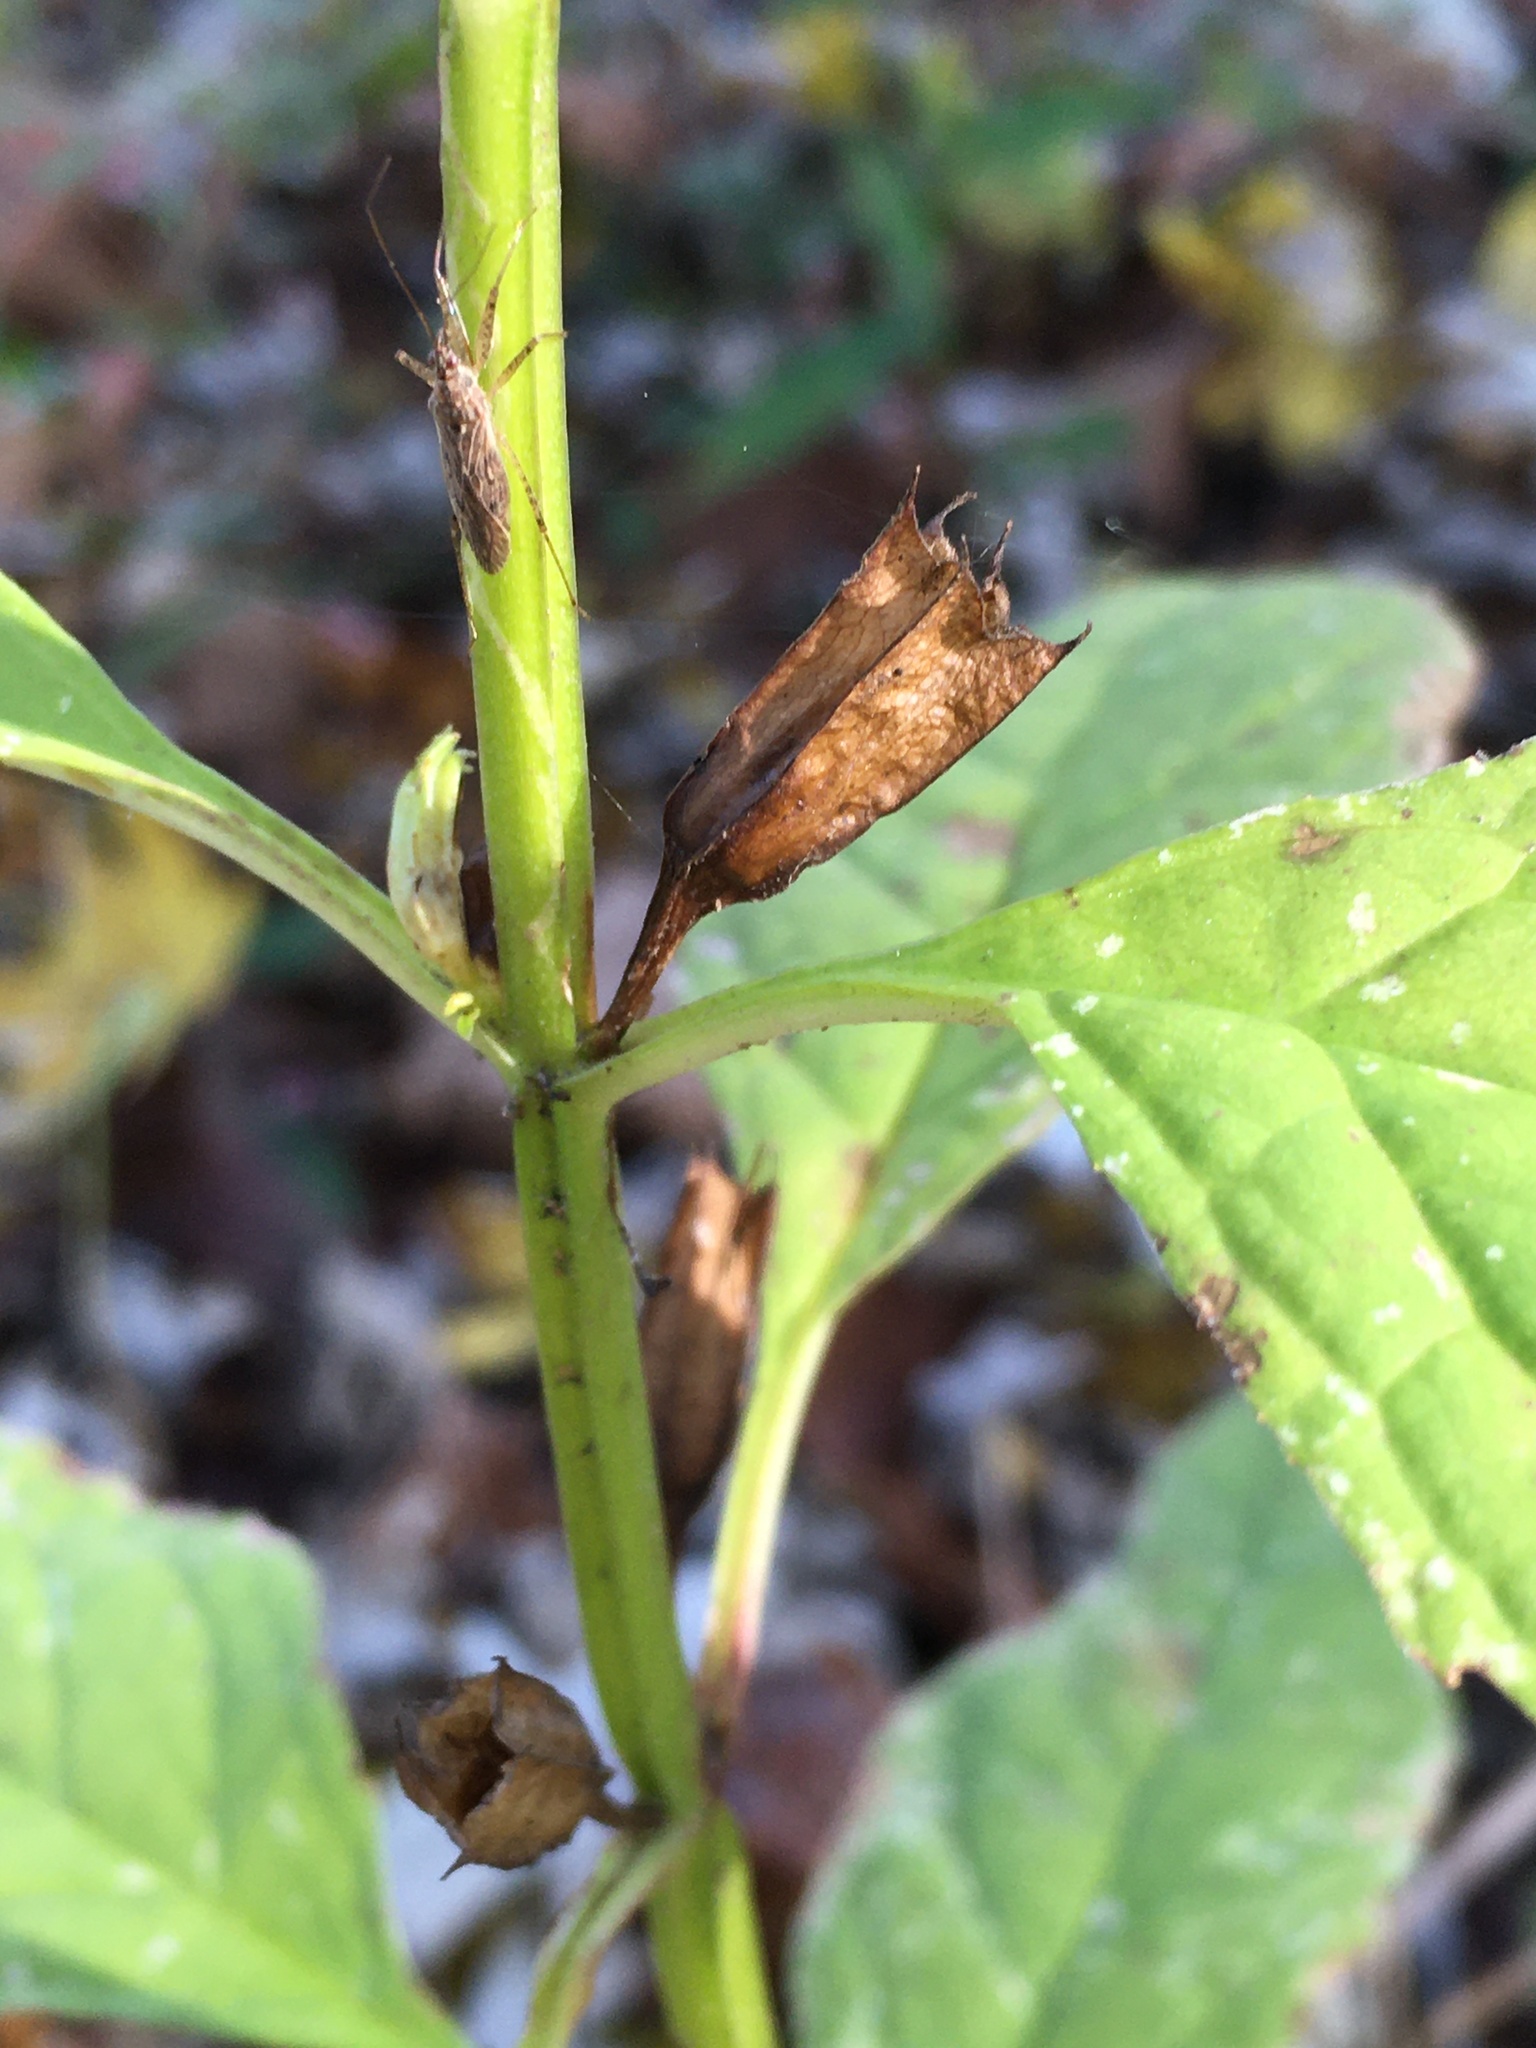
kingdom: Plantae
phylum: Tracheophyta
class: Magnoliopsida
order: Lamiales
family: Phrymaceae
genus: Mimulus
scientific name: Mimulus alatus
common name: Sharp-wing monkey-flower
